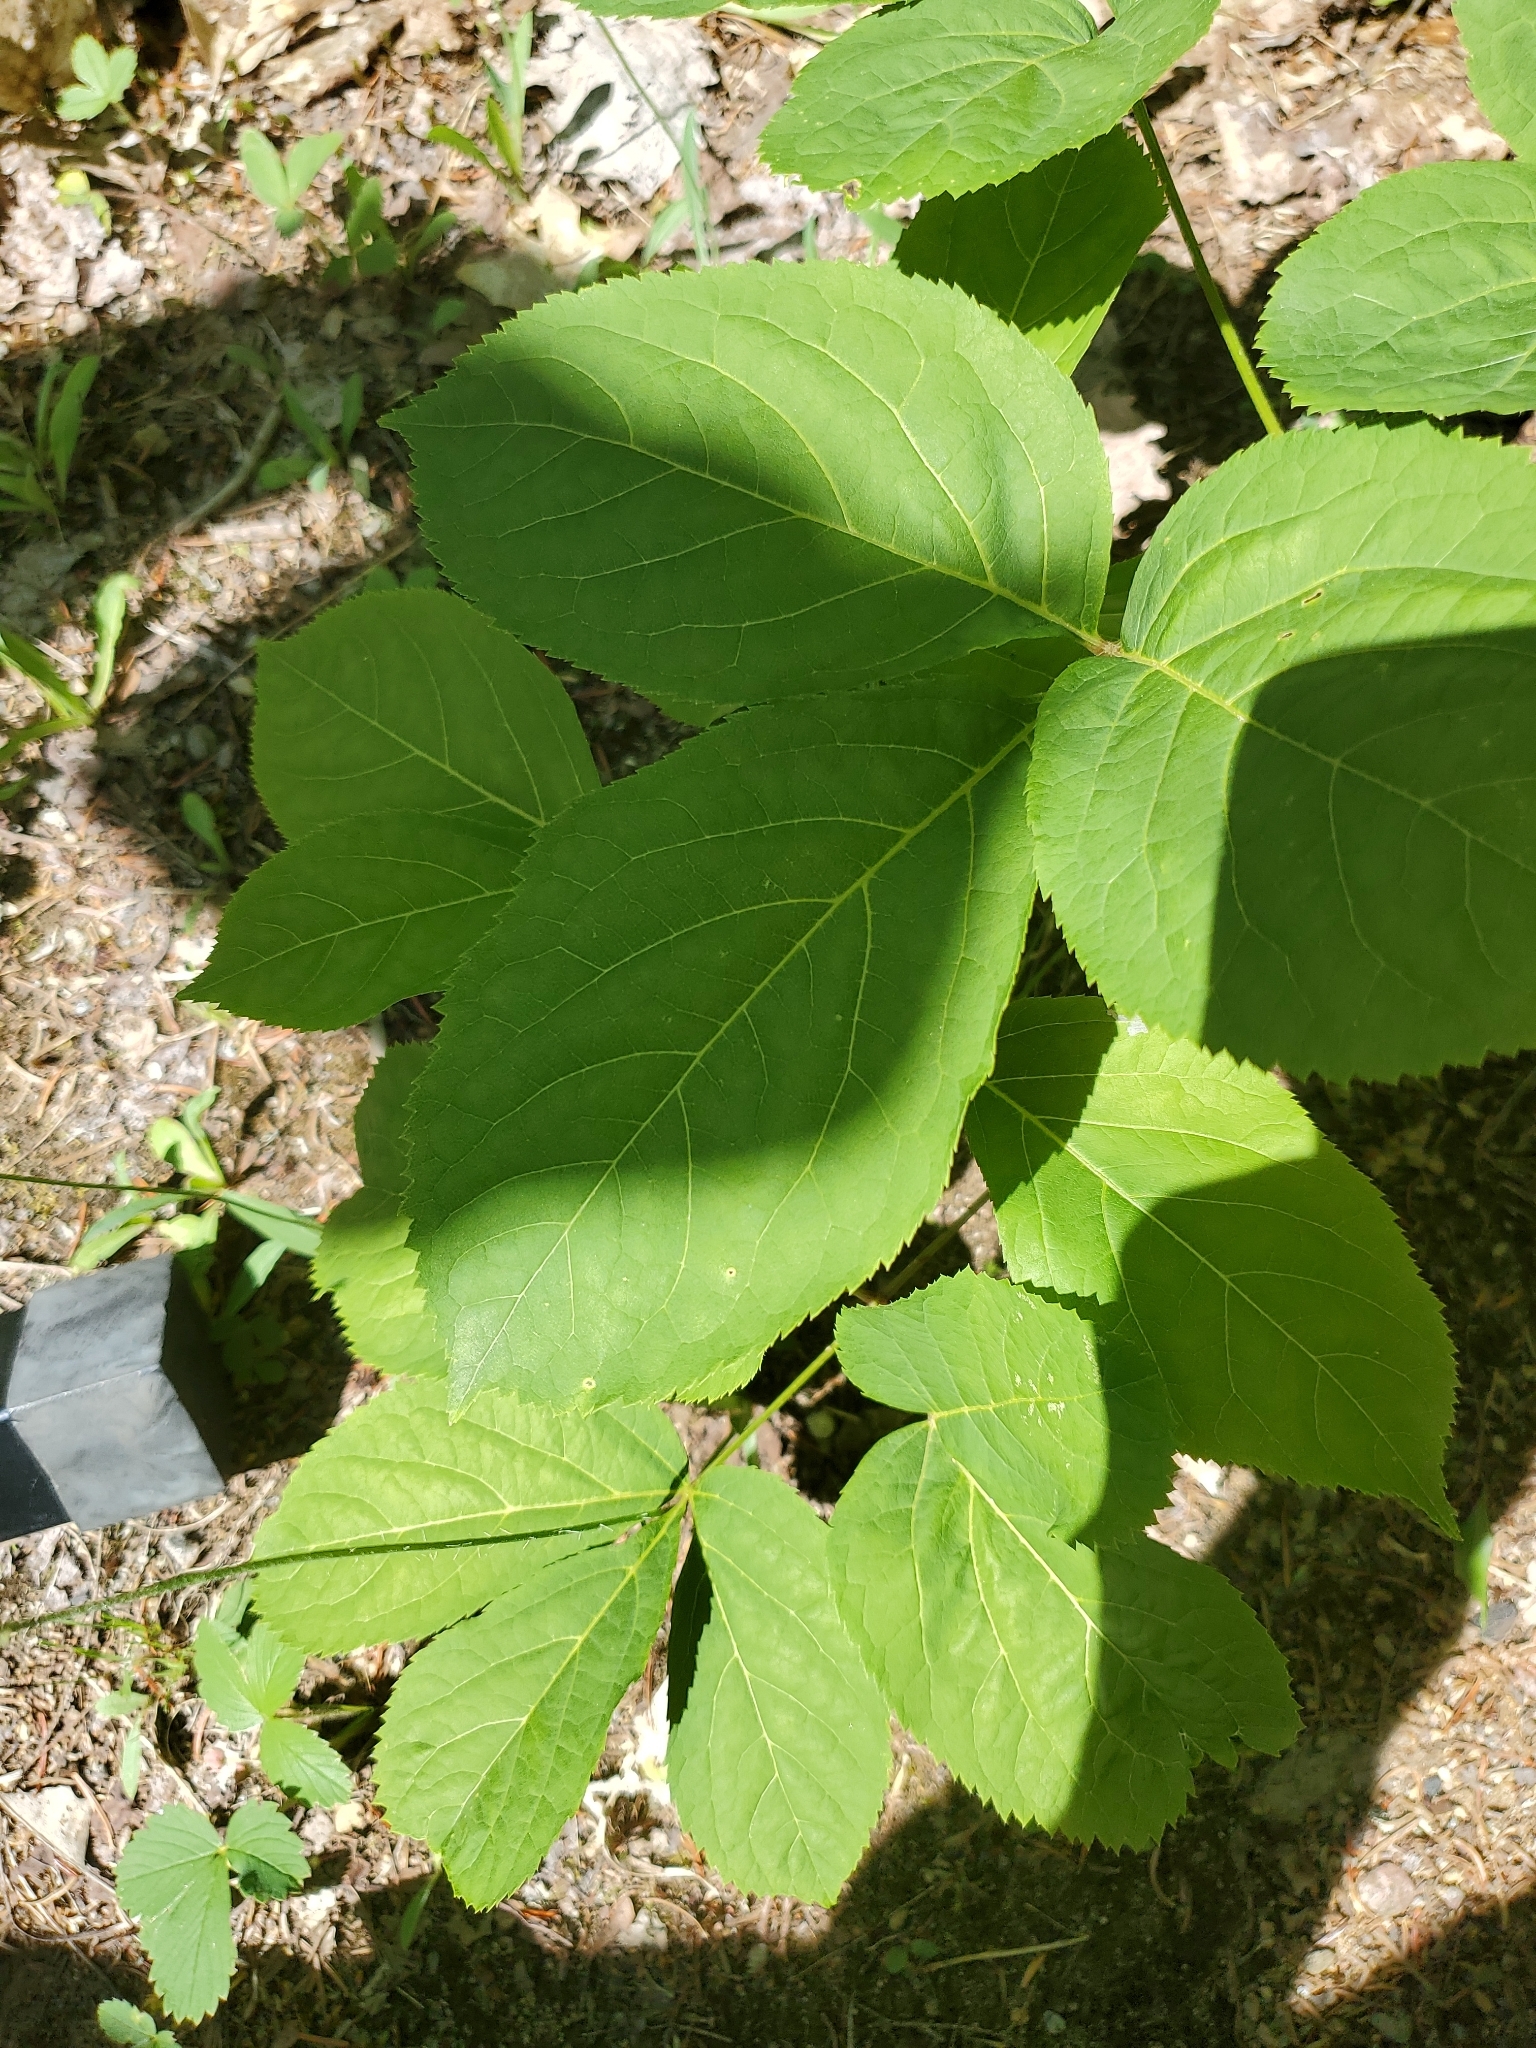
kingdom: Plantae
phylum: Tracheophyta
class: Magnoliopsida
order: Apiales
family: Araliaceae
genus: Aralia
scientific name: Aralia nudicaulis
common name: Wild sarsaparilla
